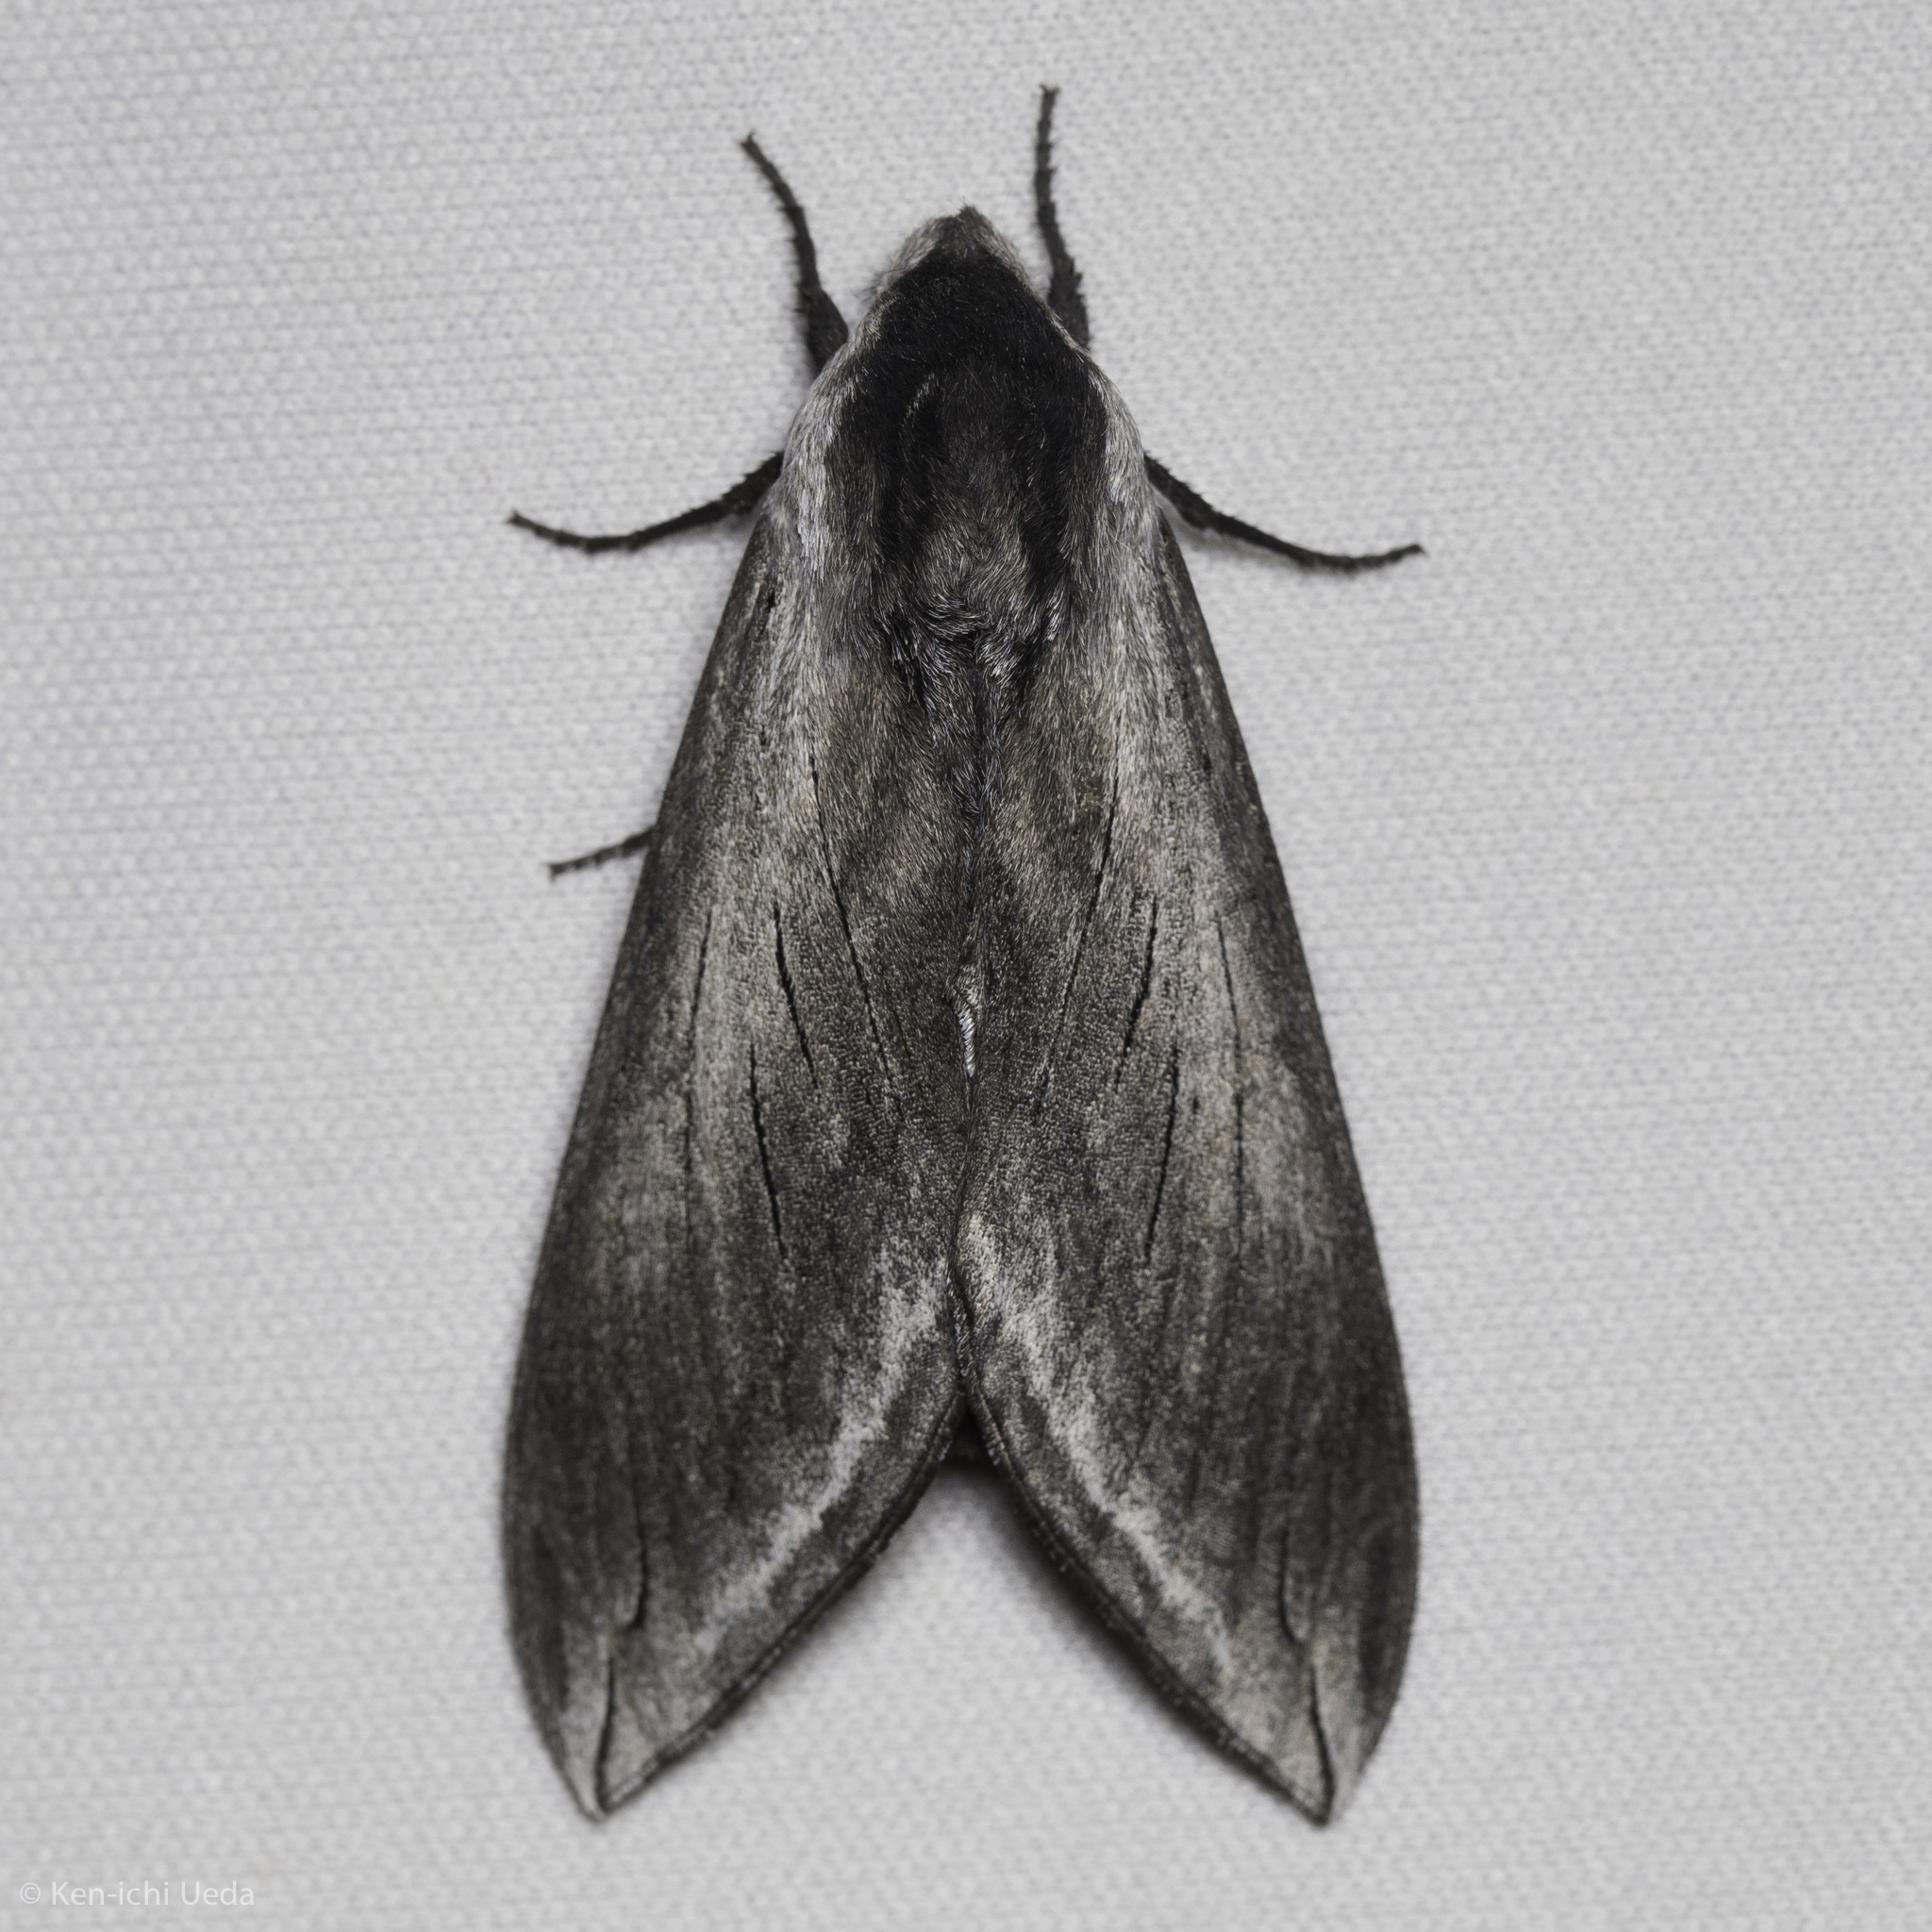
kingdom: Animalia
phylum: Arthropoda
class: Insecta
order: Lepidoptera
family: Sphingidae
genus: Sphinx
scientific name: Sphinx perelegans
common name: Elegant sphinx
